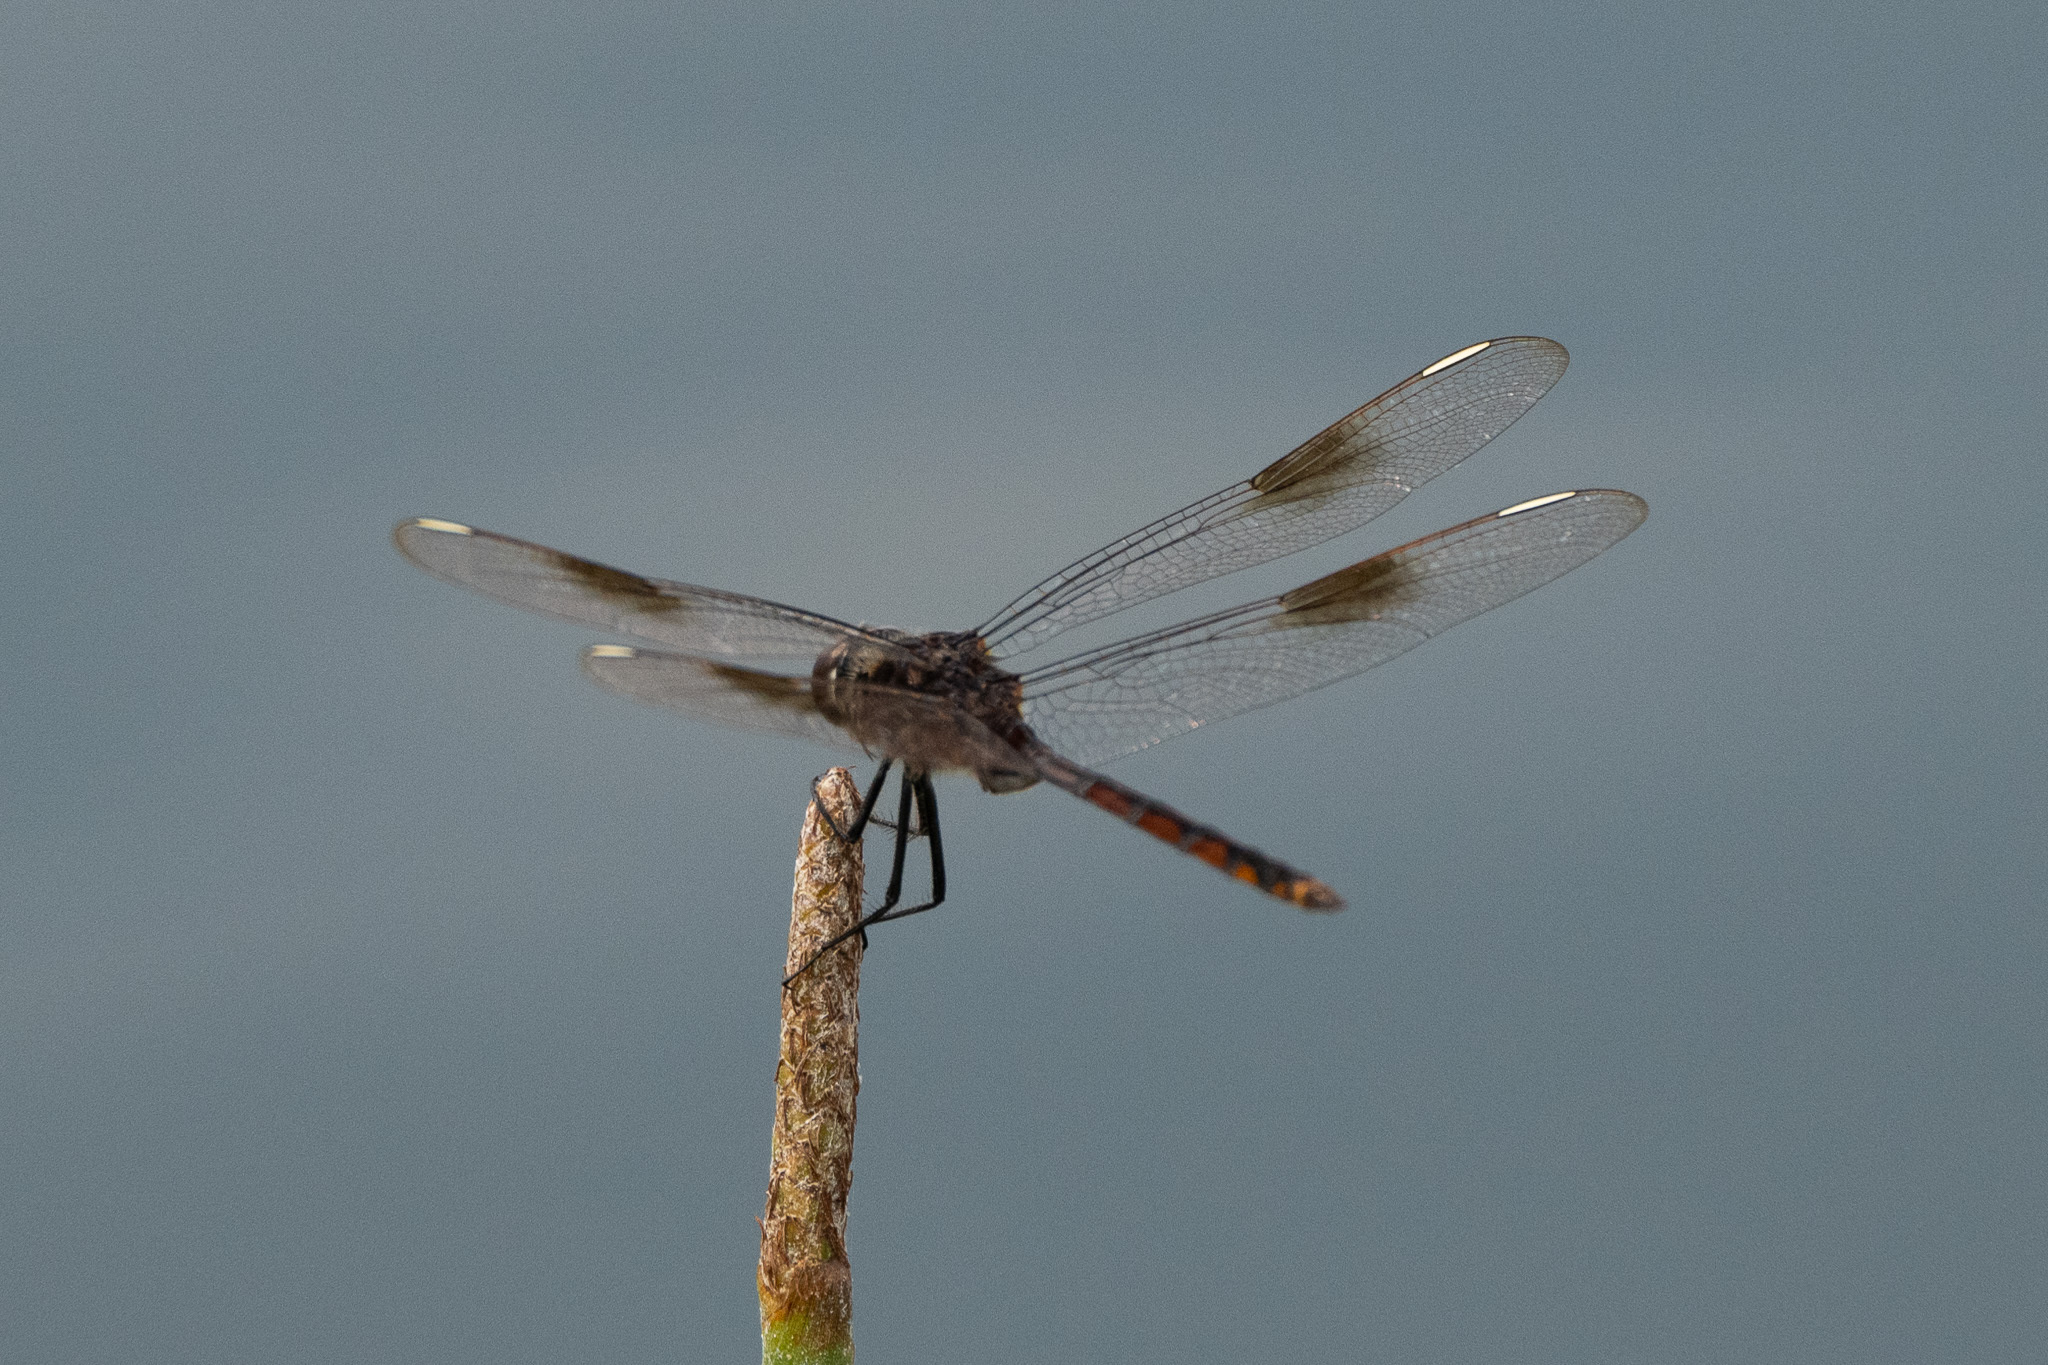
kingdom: Animalia
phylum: Arthropoda
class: Insecta
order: Odonata
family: Libellulidae
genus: Brachymesia
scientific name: Brachymesia gravida
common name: Four-spotted pennant
